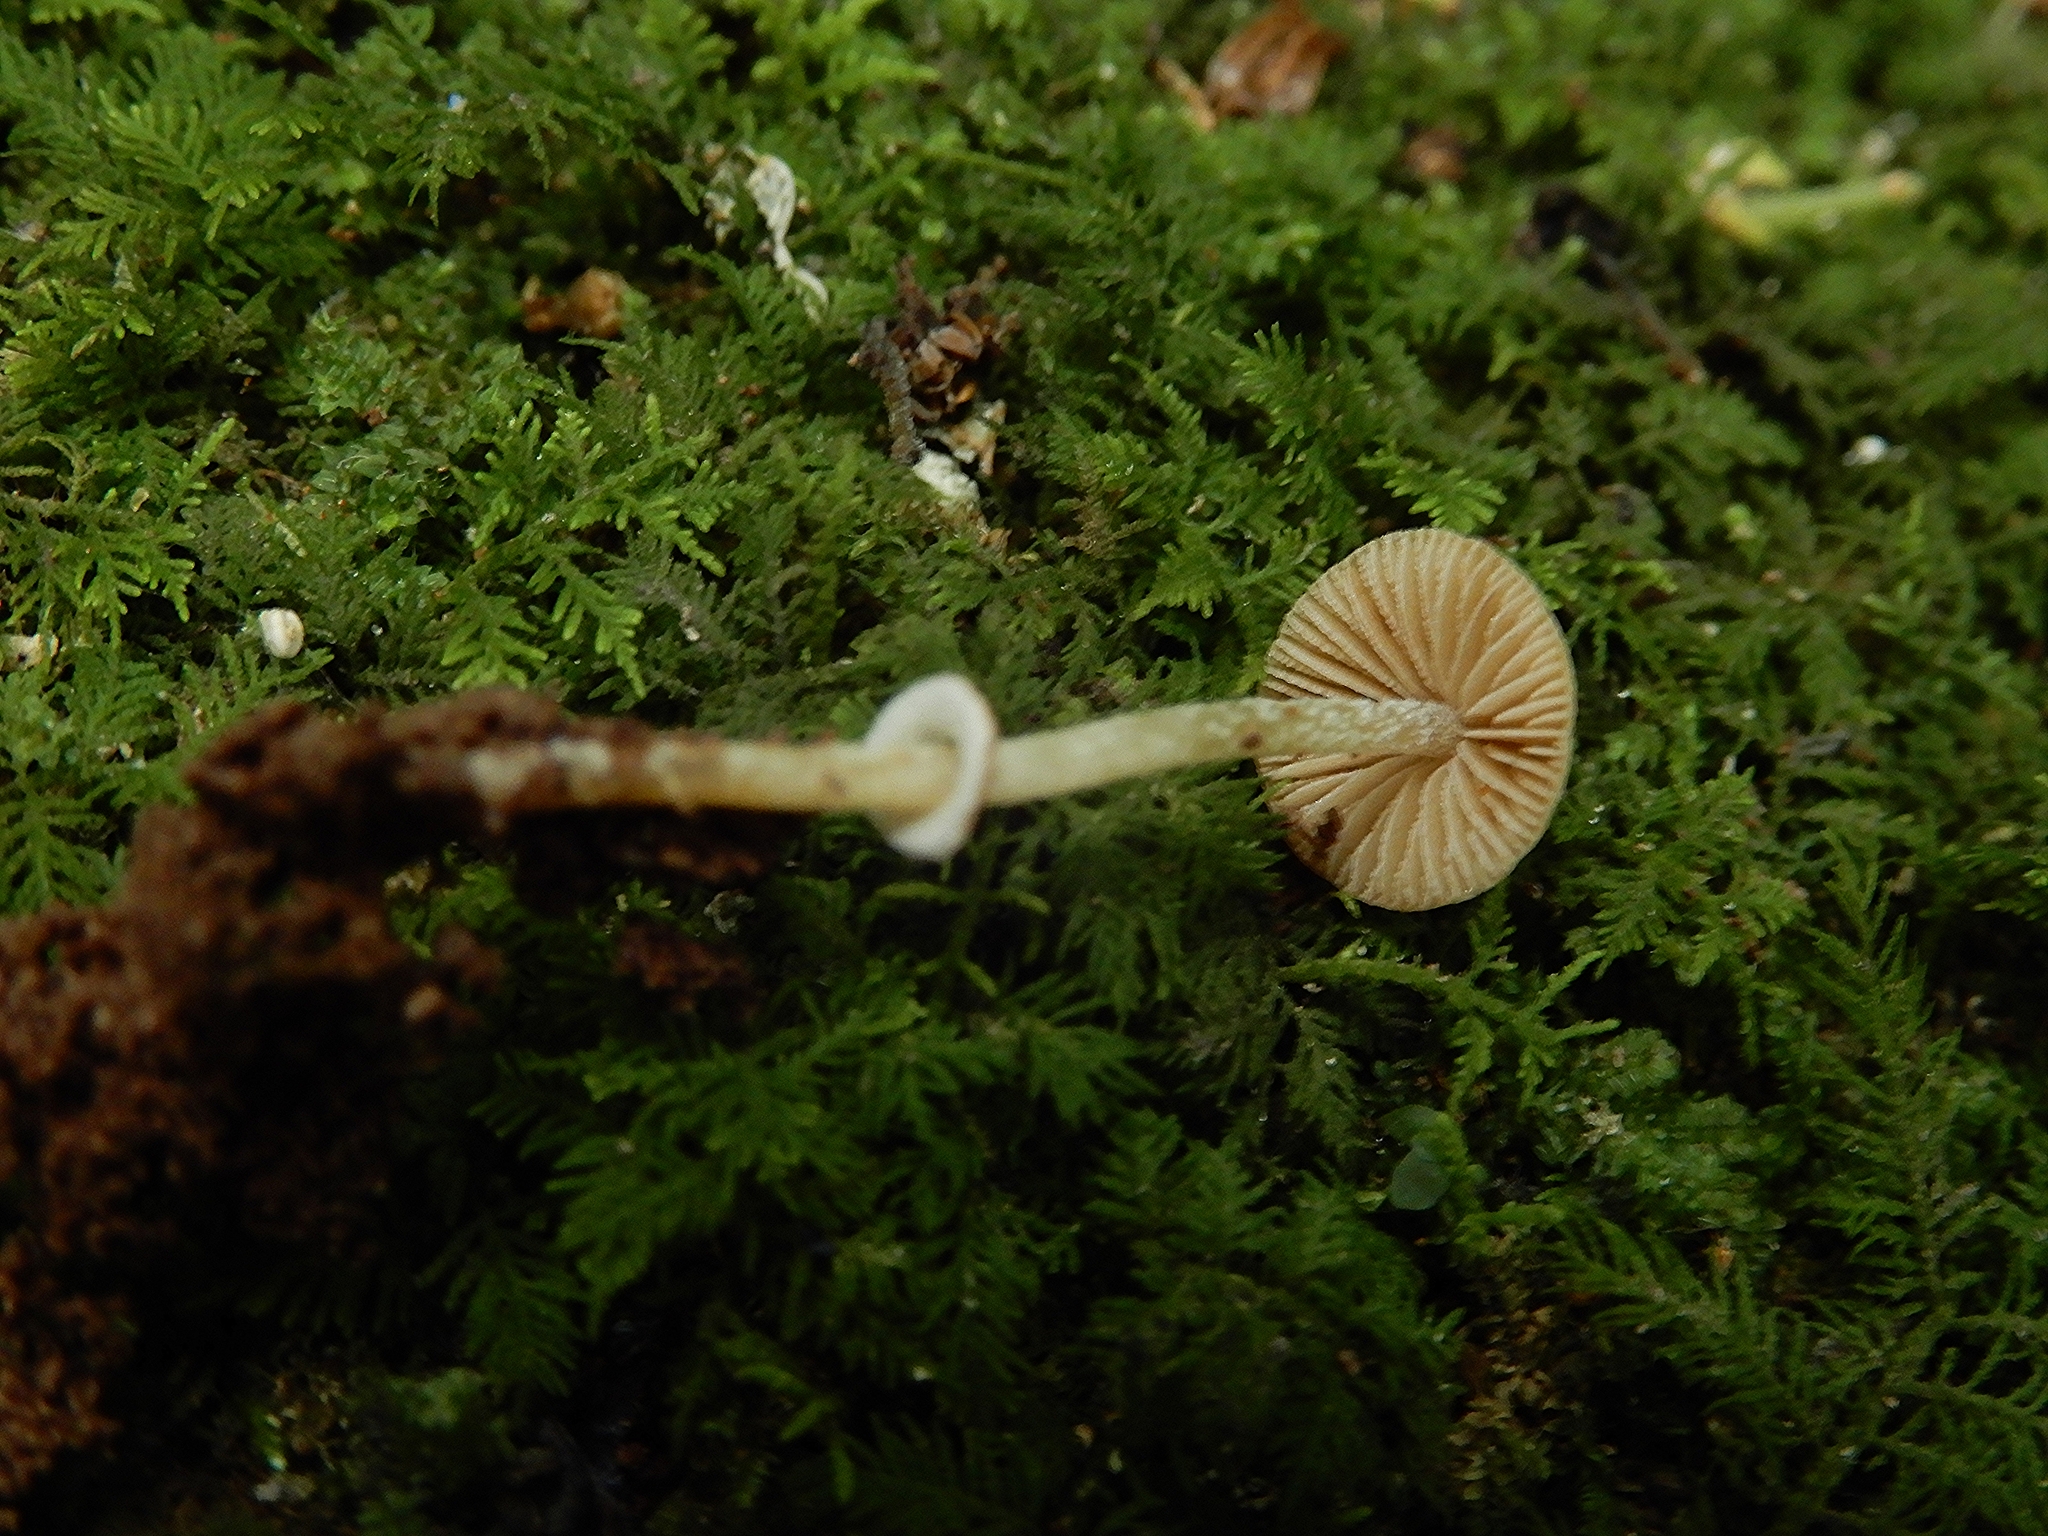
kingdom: Fungi
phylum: Basidiomycota
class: Agaricomycetes
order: Agaricales
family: Bolbitiaceae
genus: Pholiotina
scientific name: Pholiotina gracilenta
